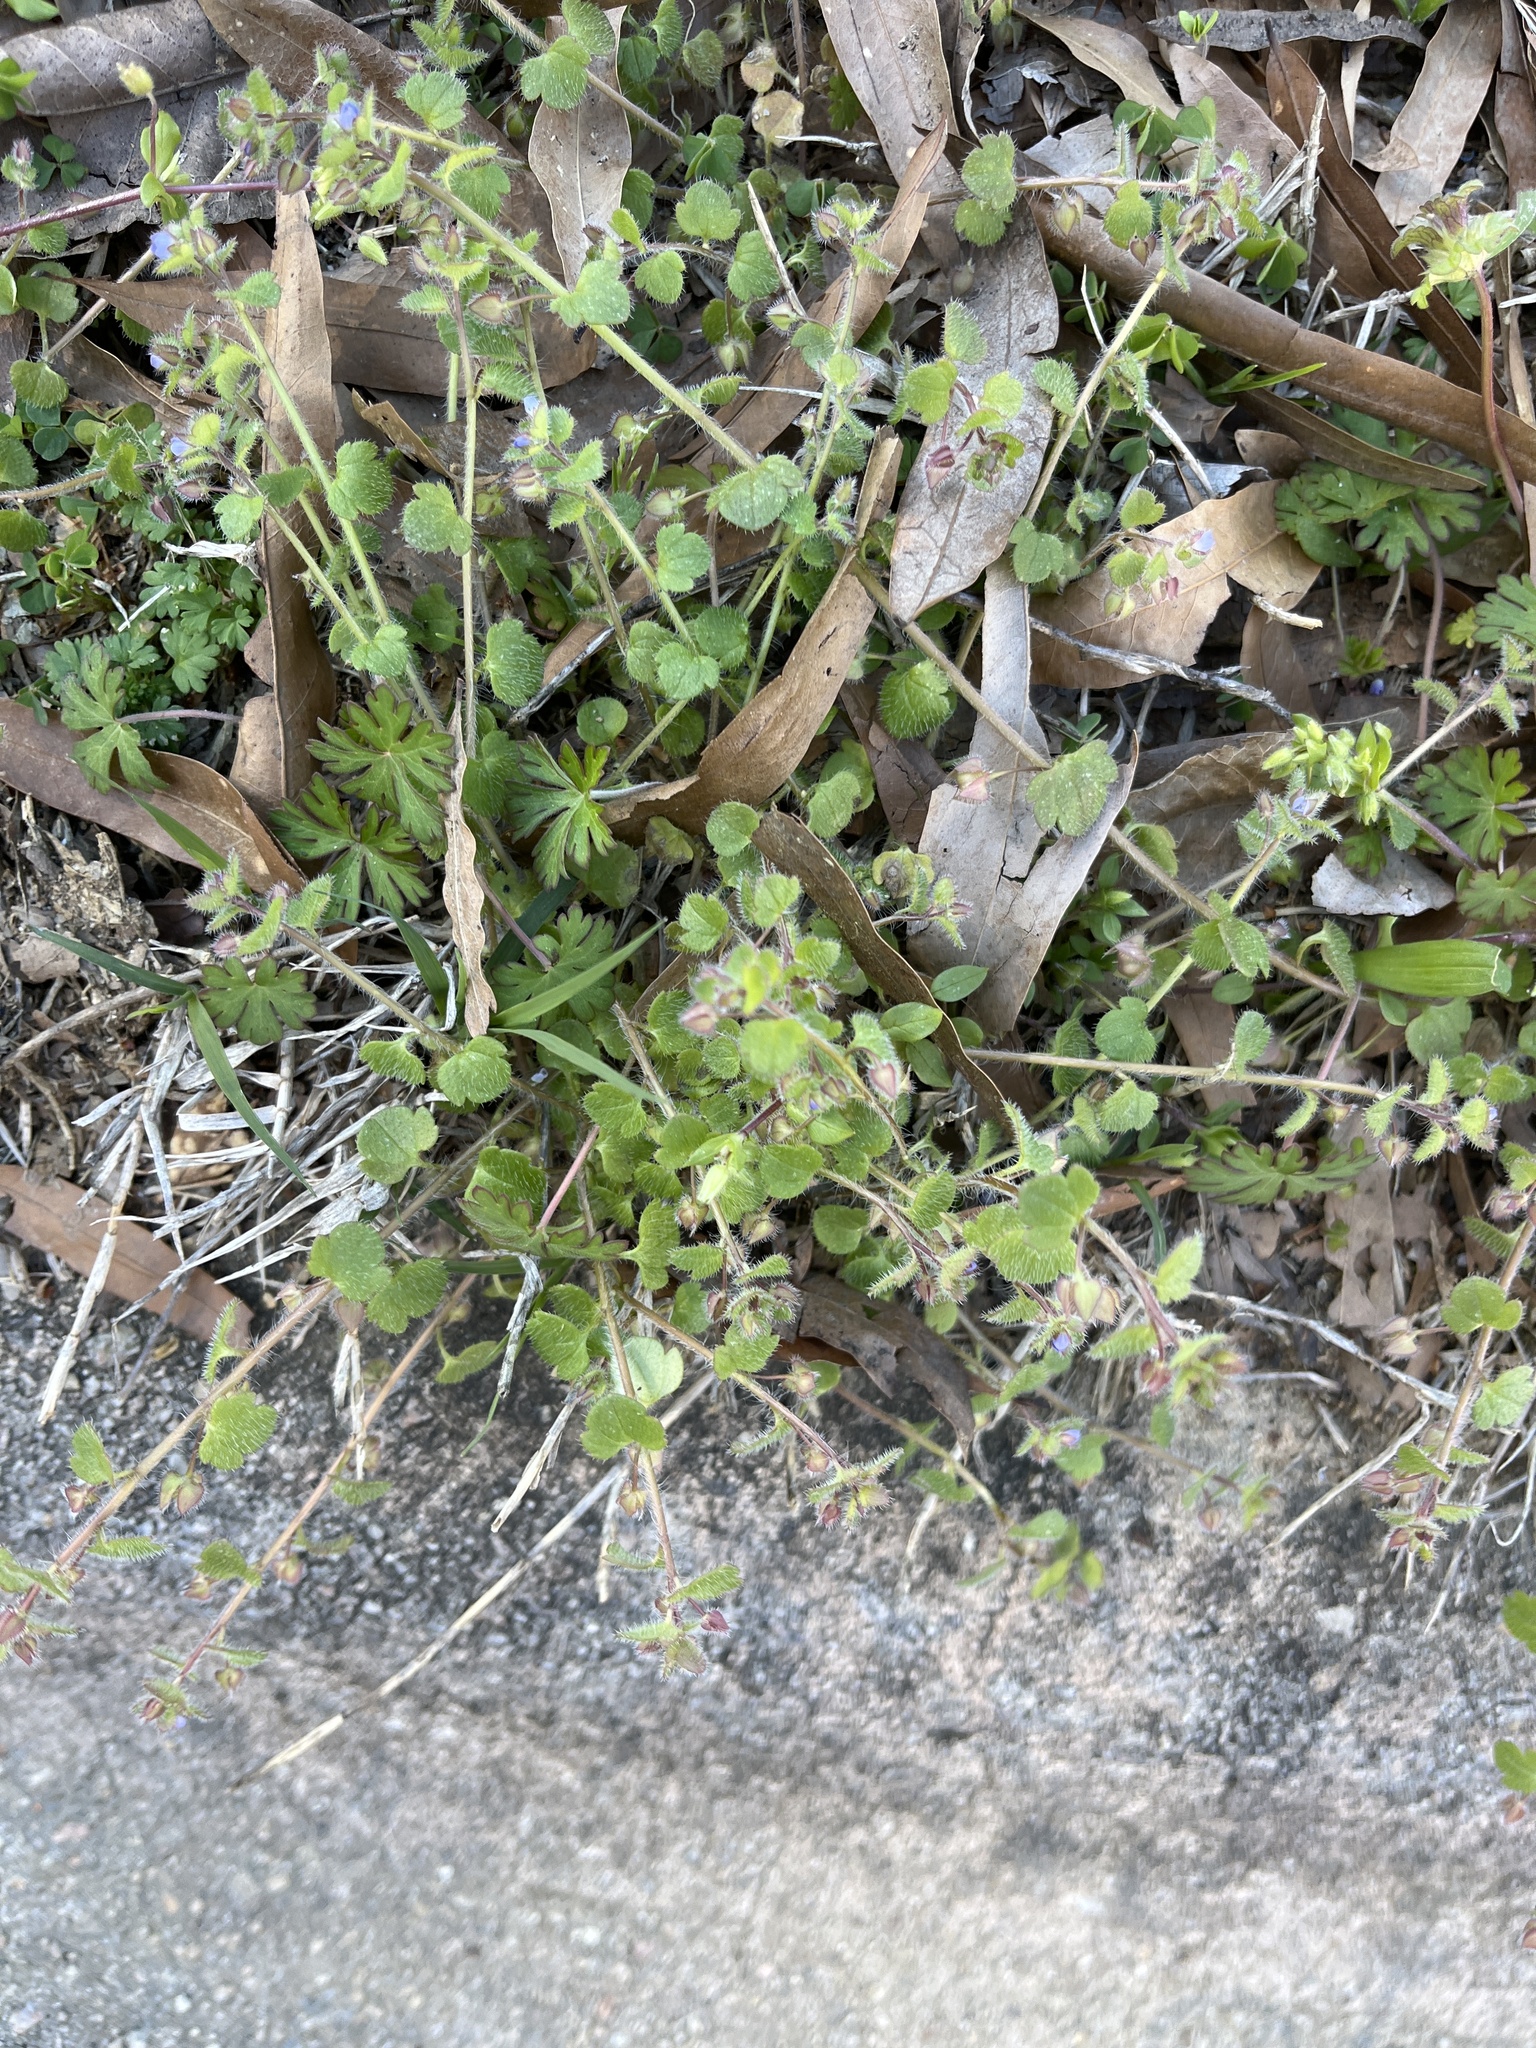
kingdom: Plantae
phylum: Tracheophyta
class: Magnoliopsida
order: Lamiales
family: Plantaginaceae
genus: Veronica
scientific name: Veronica hederifolia
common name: Ivy-leaved speedwell
